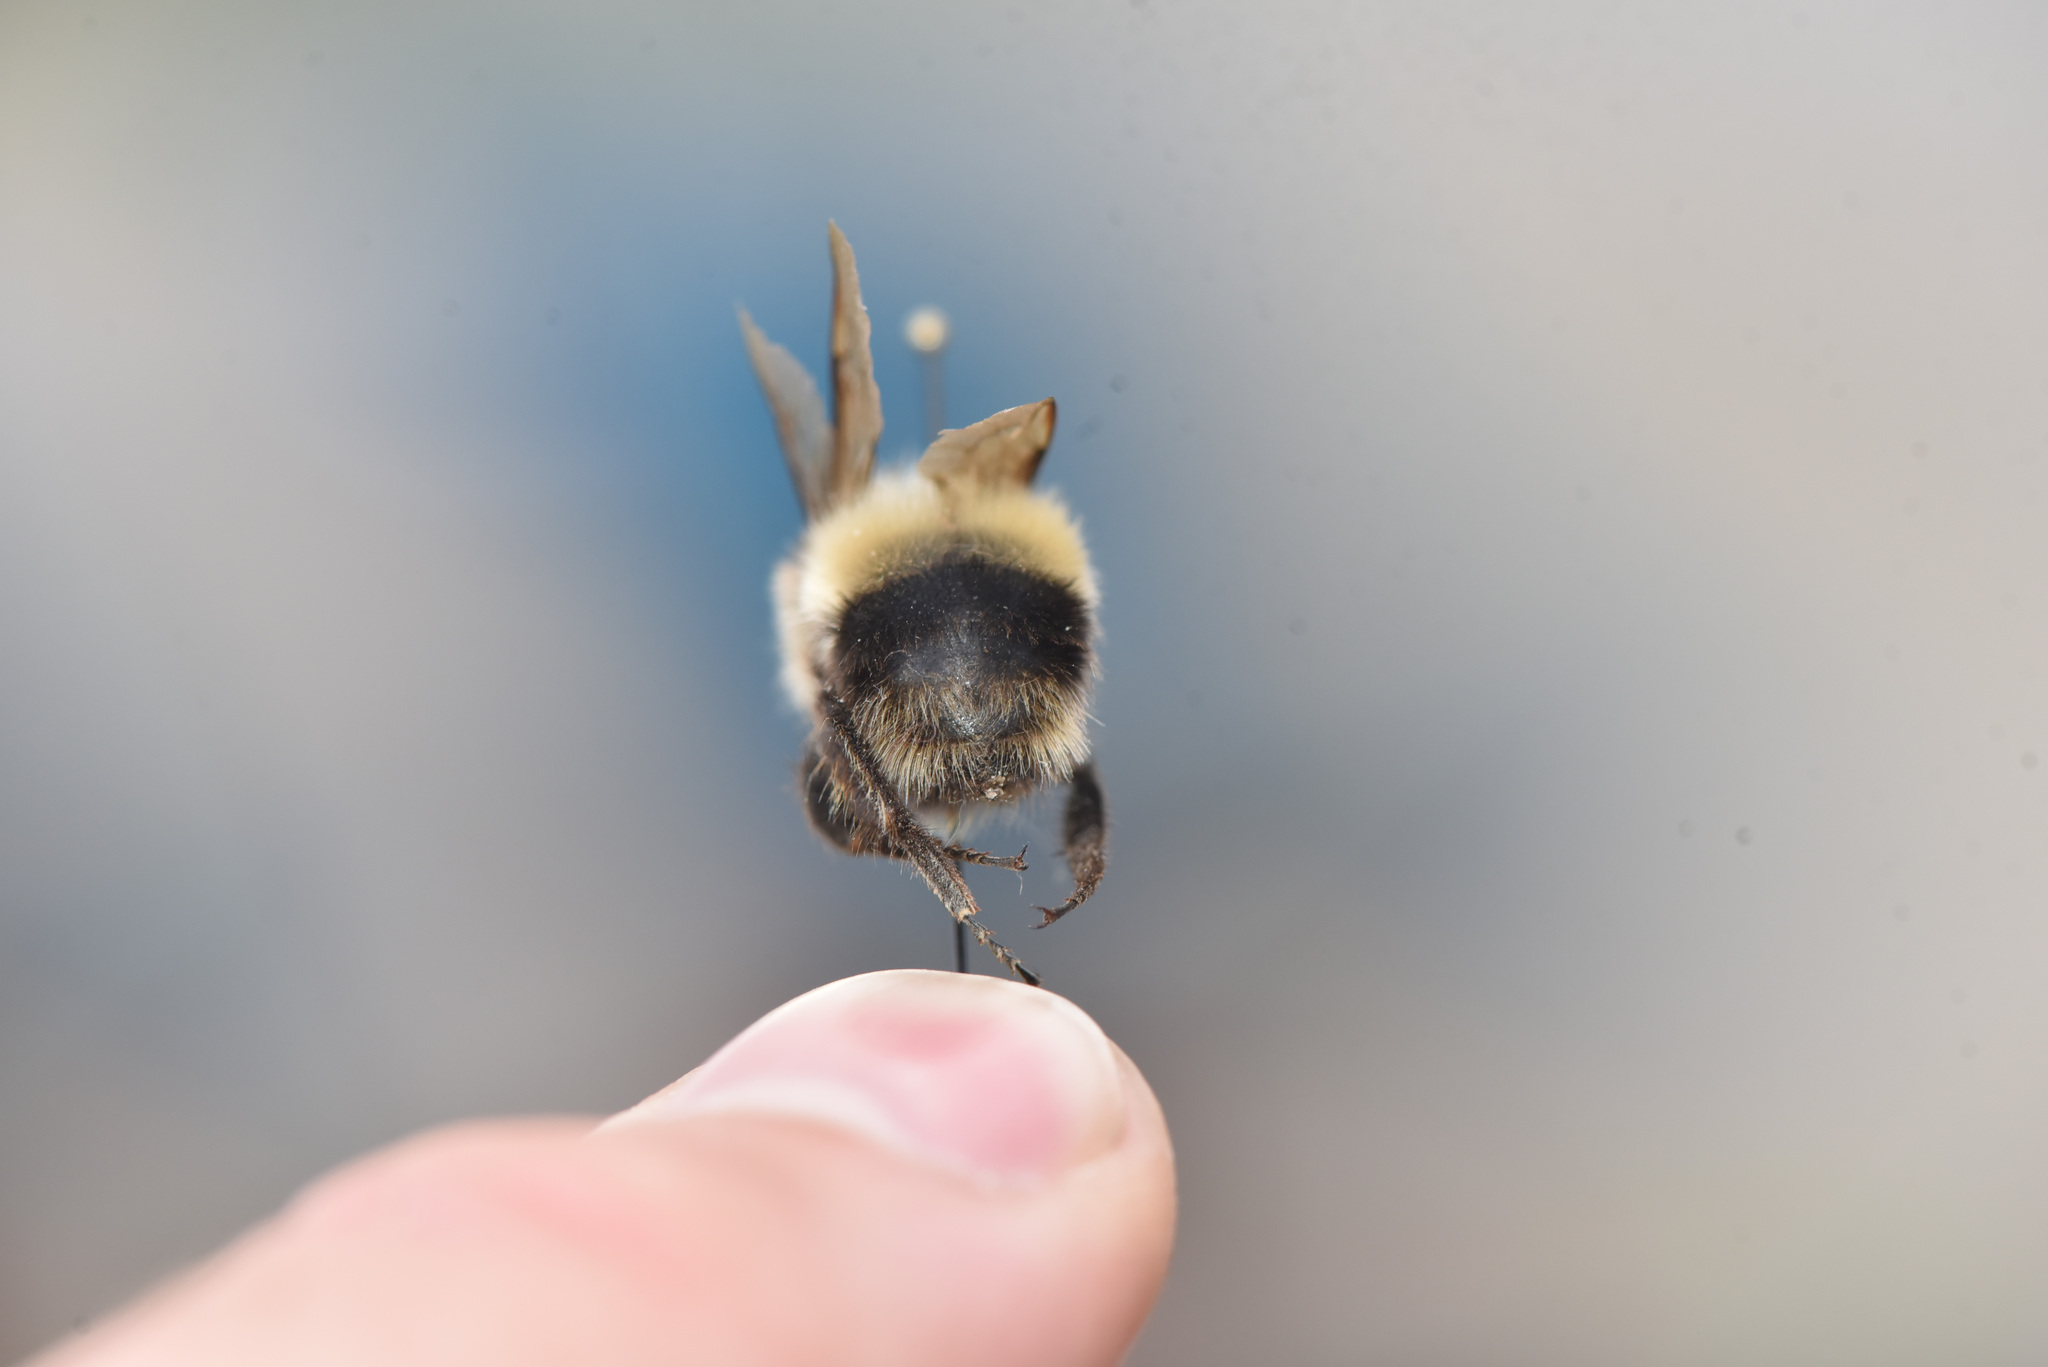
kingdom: Animalia
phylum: Arthropoda
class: Insecta
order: Hymenoptera
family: Apidae
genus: Bombus
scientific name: Bombus kirbiellus
